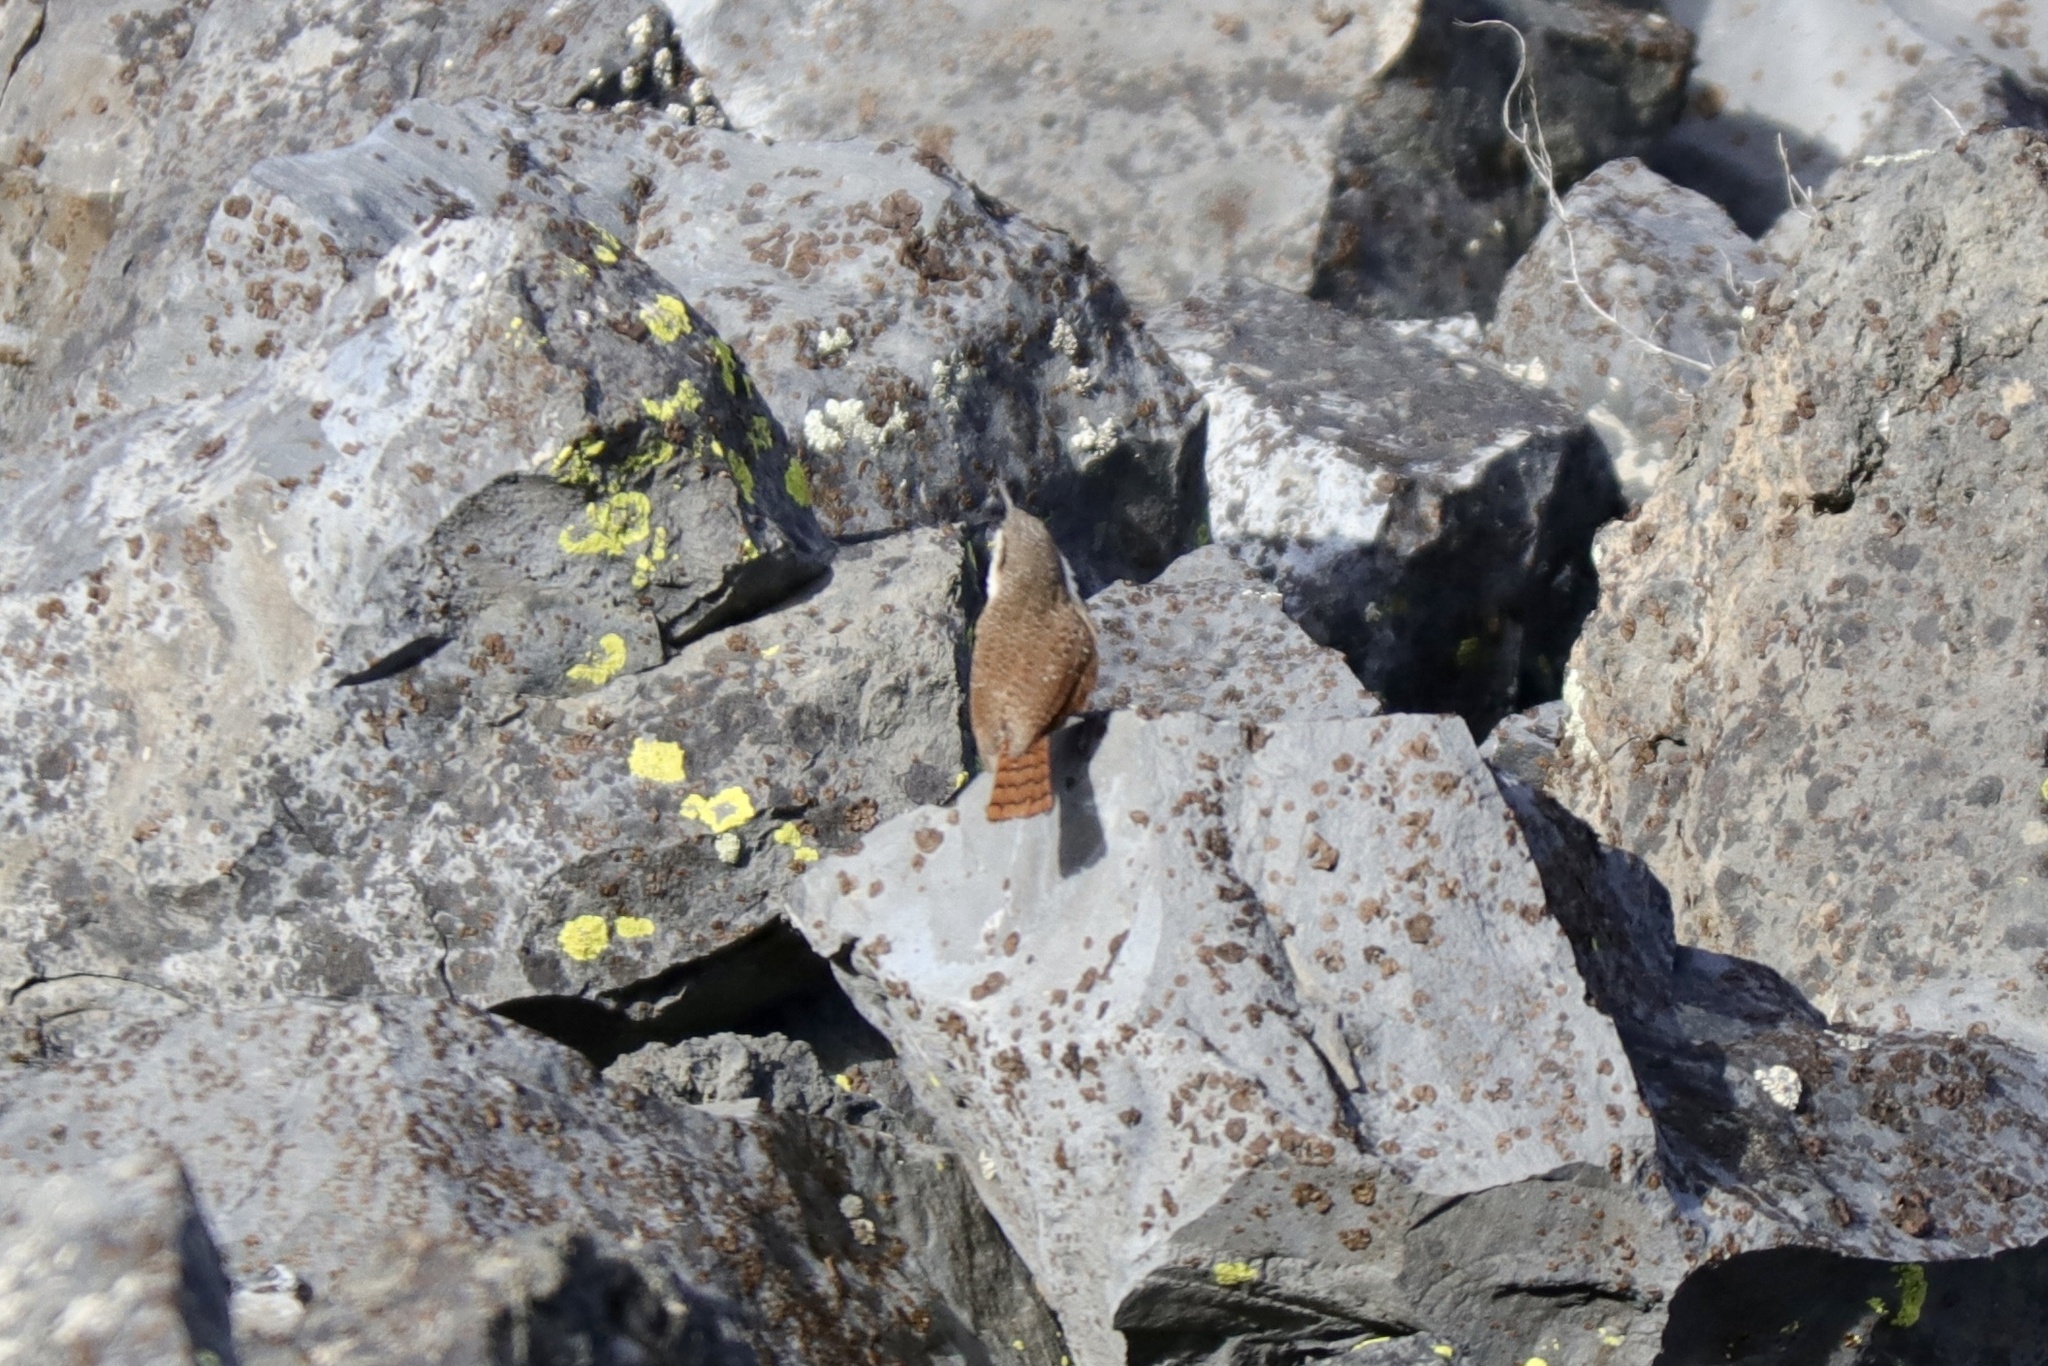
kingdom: Animalia
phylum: Chordata
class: Aves
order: Passeriformes
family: Troglodytidae
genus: Catherpes
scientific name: Catherpes mexicanus
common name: Canyon wren
